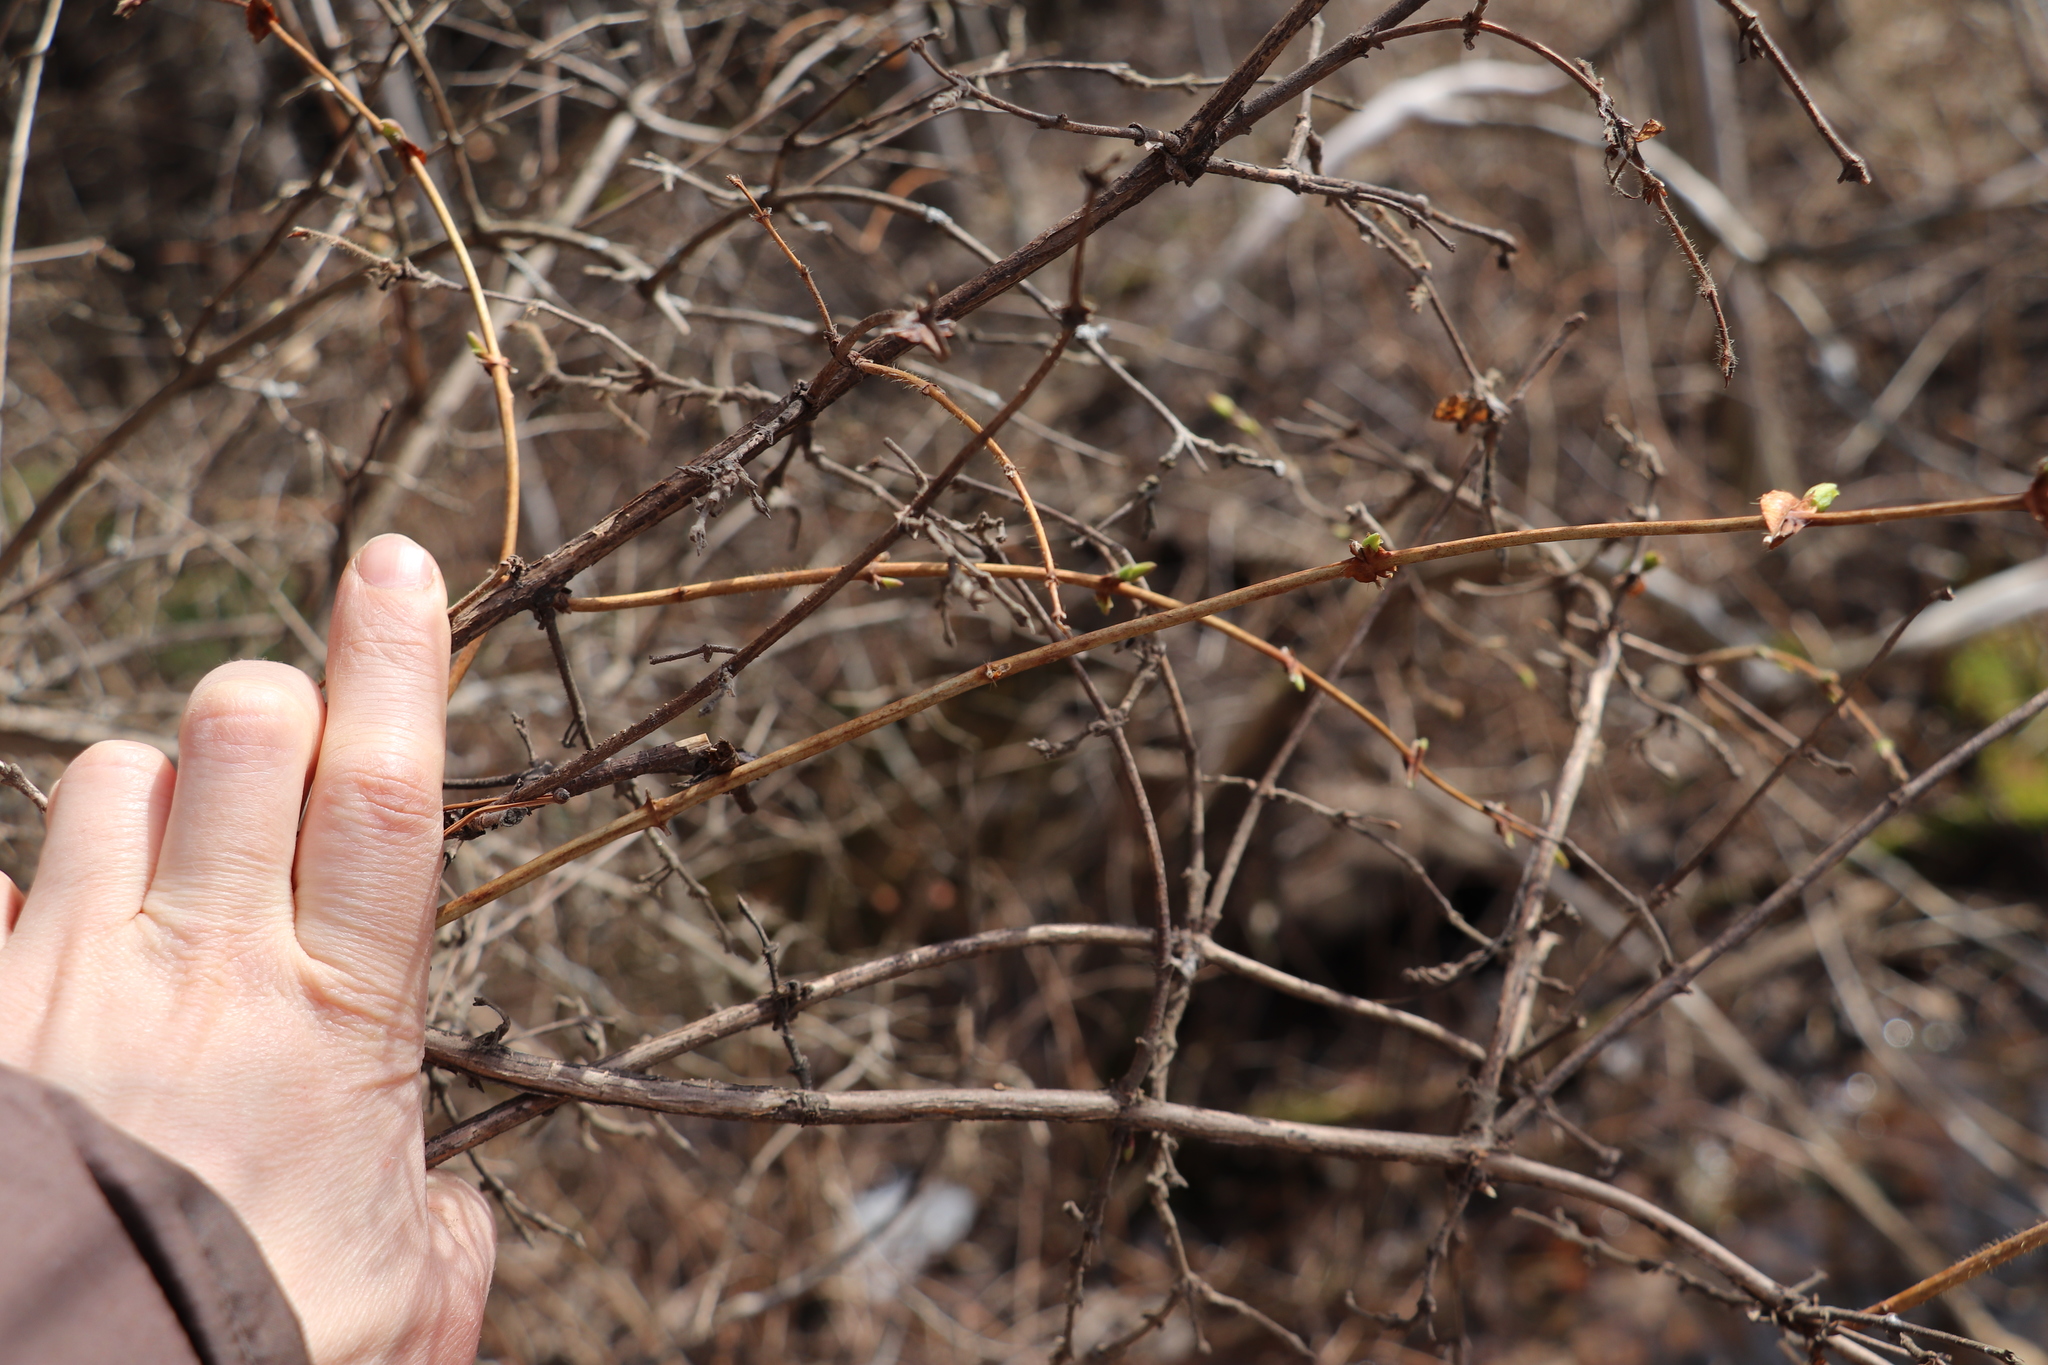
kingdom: Plantae
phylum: Tracheophyta
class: Magnoliopsida
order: Dipsacales
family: Caprifoliaceae
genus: Lonicera
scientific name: Lonicera caerulea
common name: Blue honeysuckle
